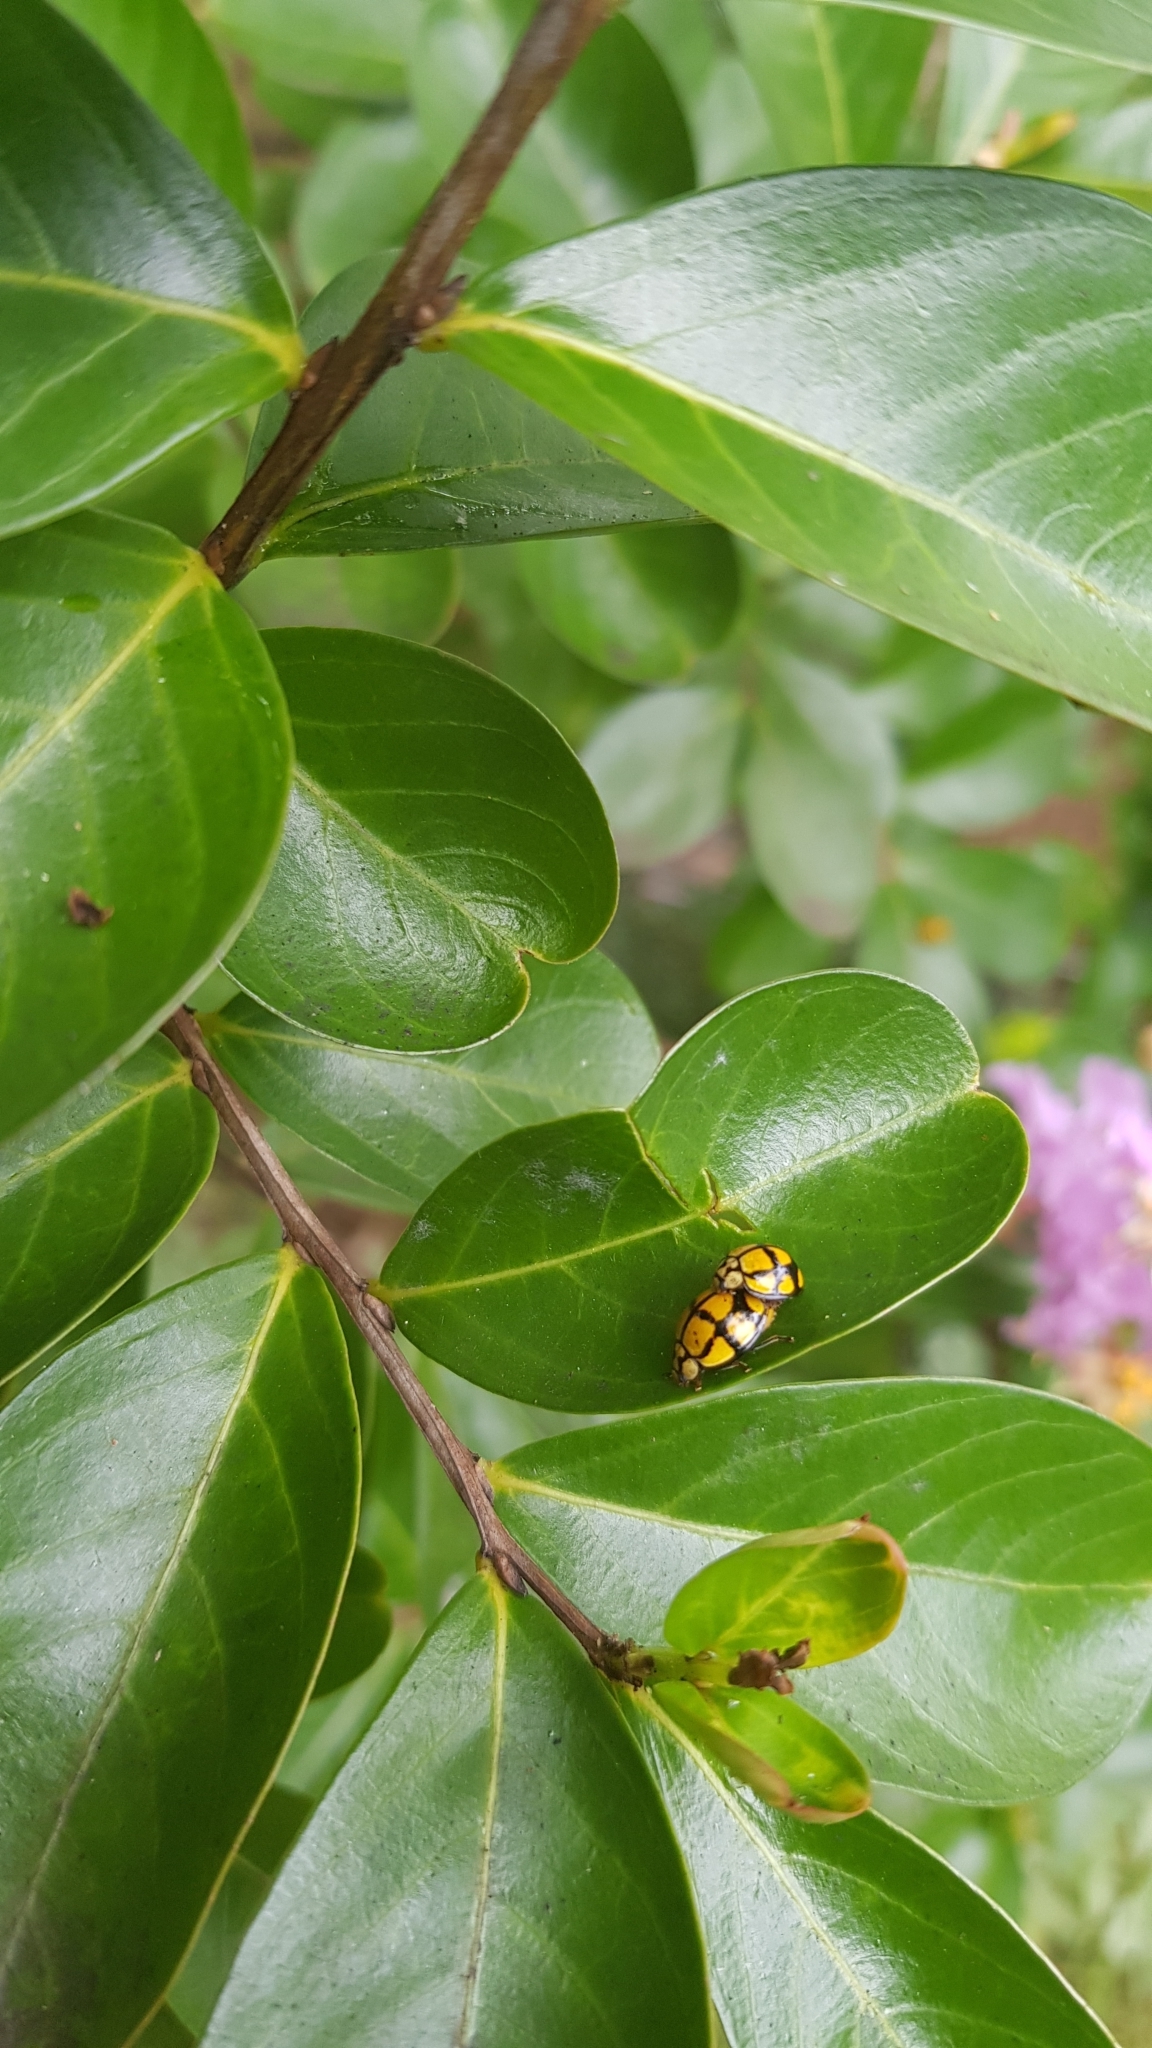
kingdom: Animalia
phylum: Arthropoda
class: Insecta
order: Coleoptera
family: Coccinellidae
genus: Harmonia
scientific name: Harmonia
